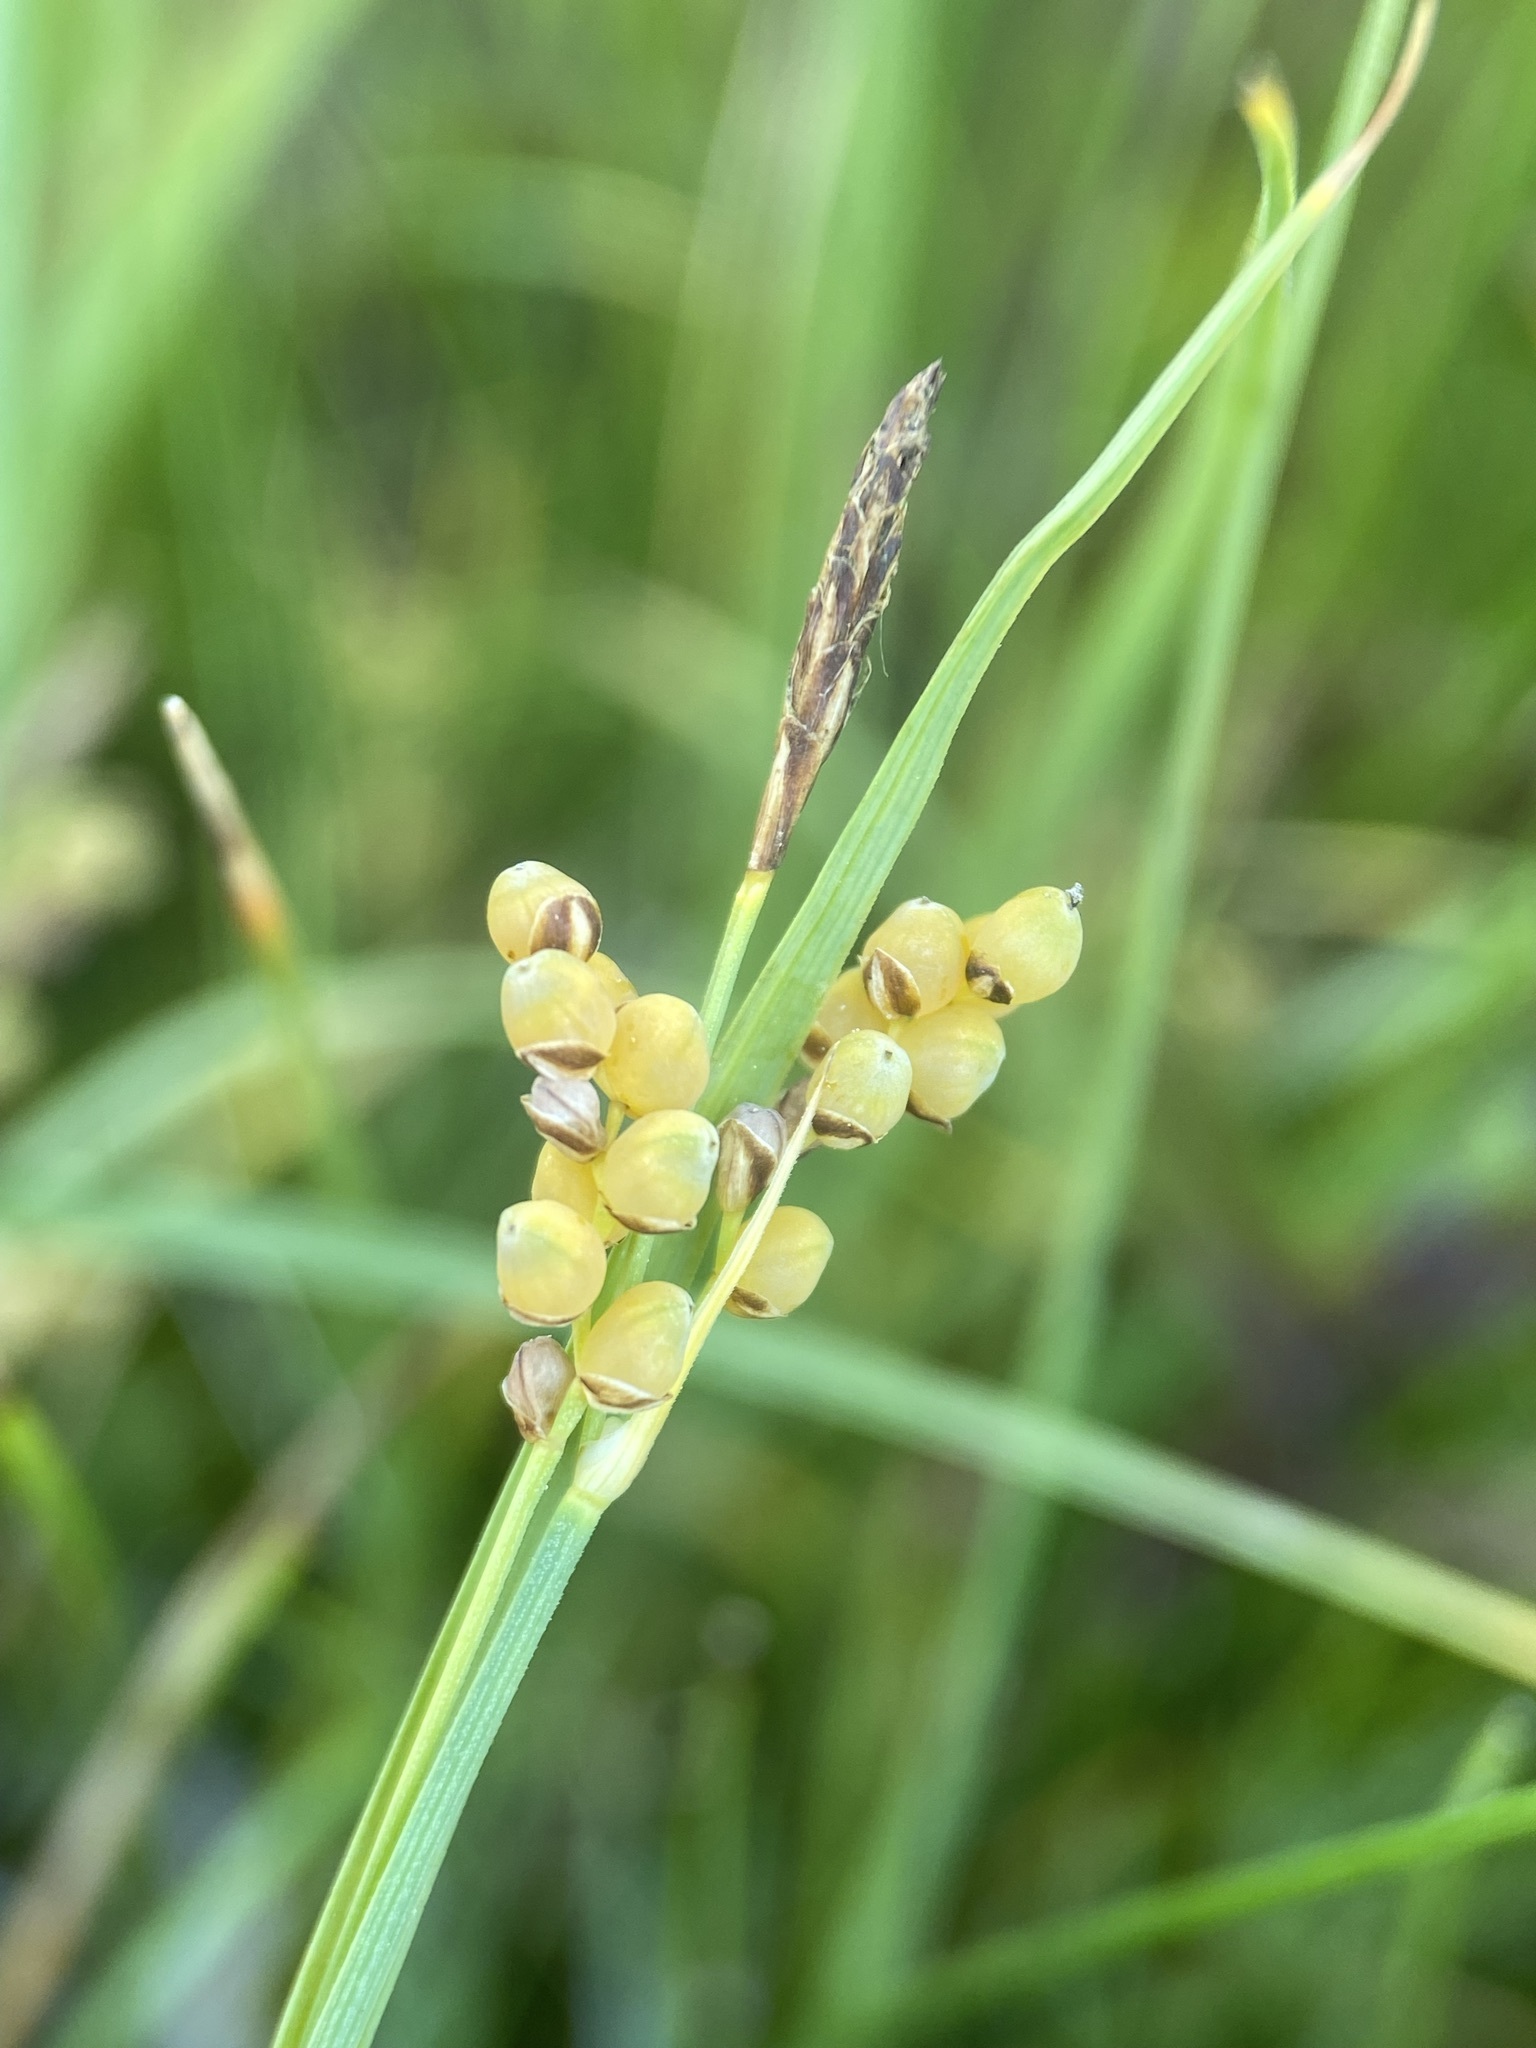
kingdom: Plantae
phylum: Tracheophyta
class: Liliopsida
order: Poales
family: Cyperaceae
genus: Carex
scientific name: Carex aurea
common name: Golden sedge
